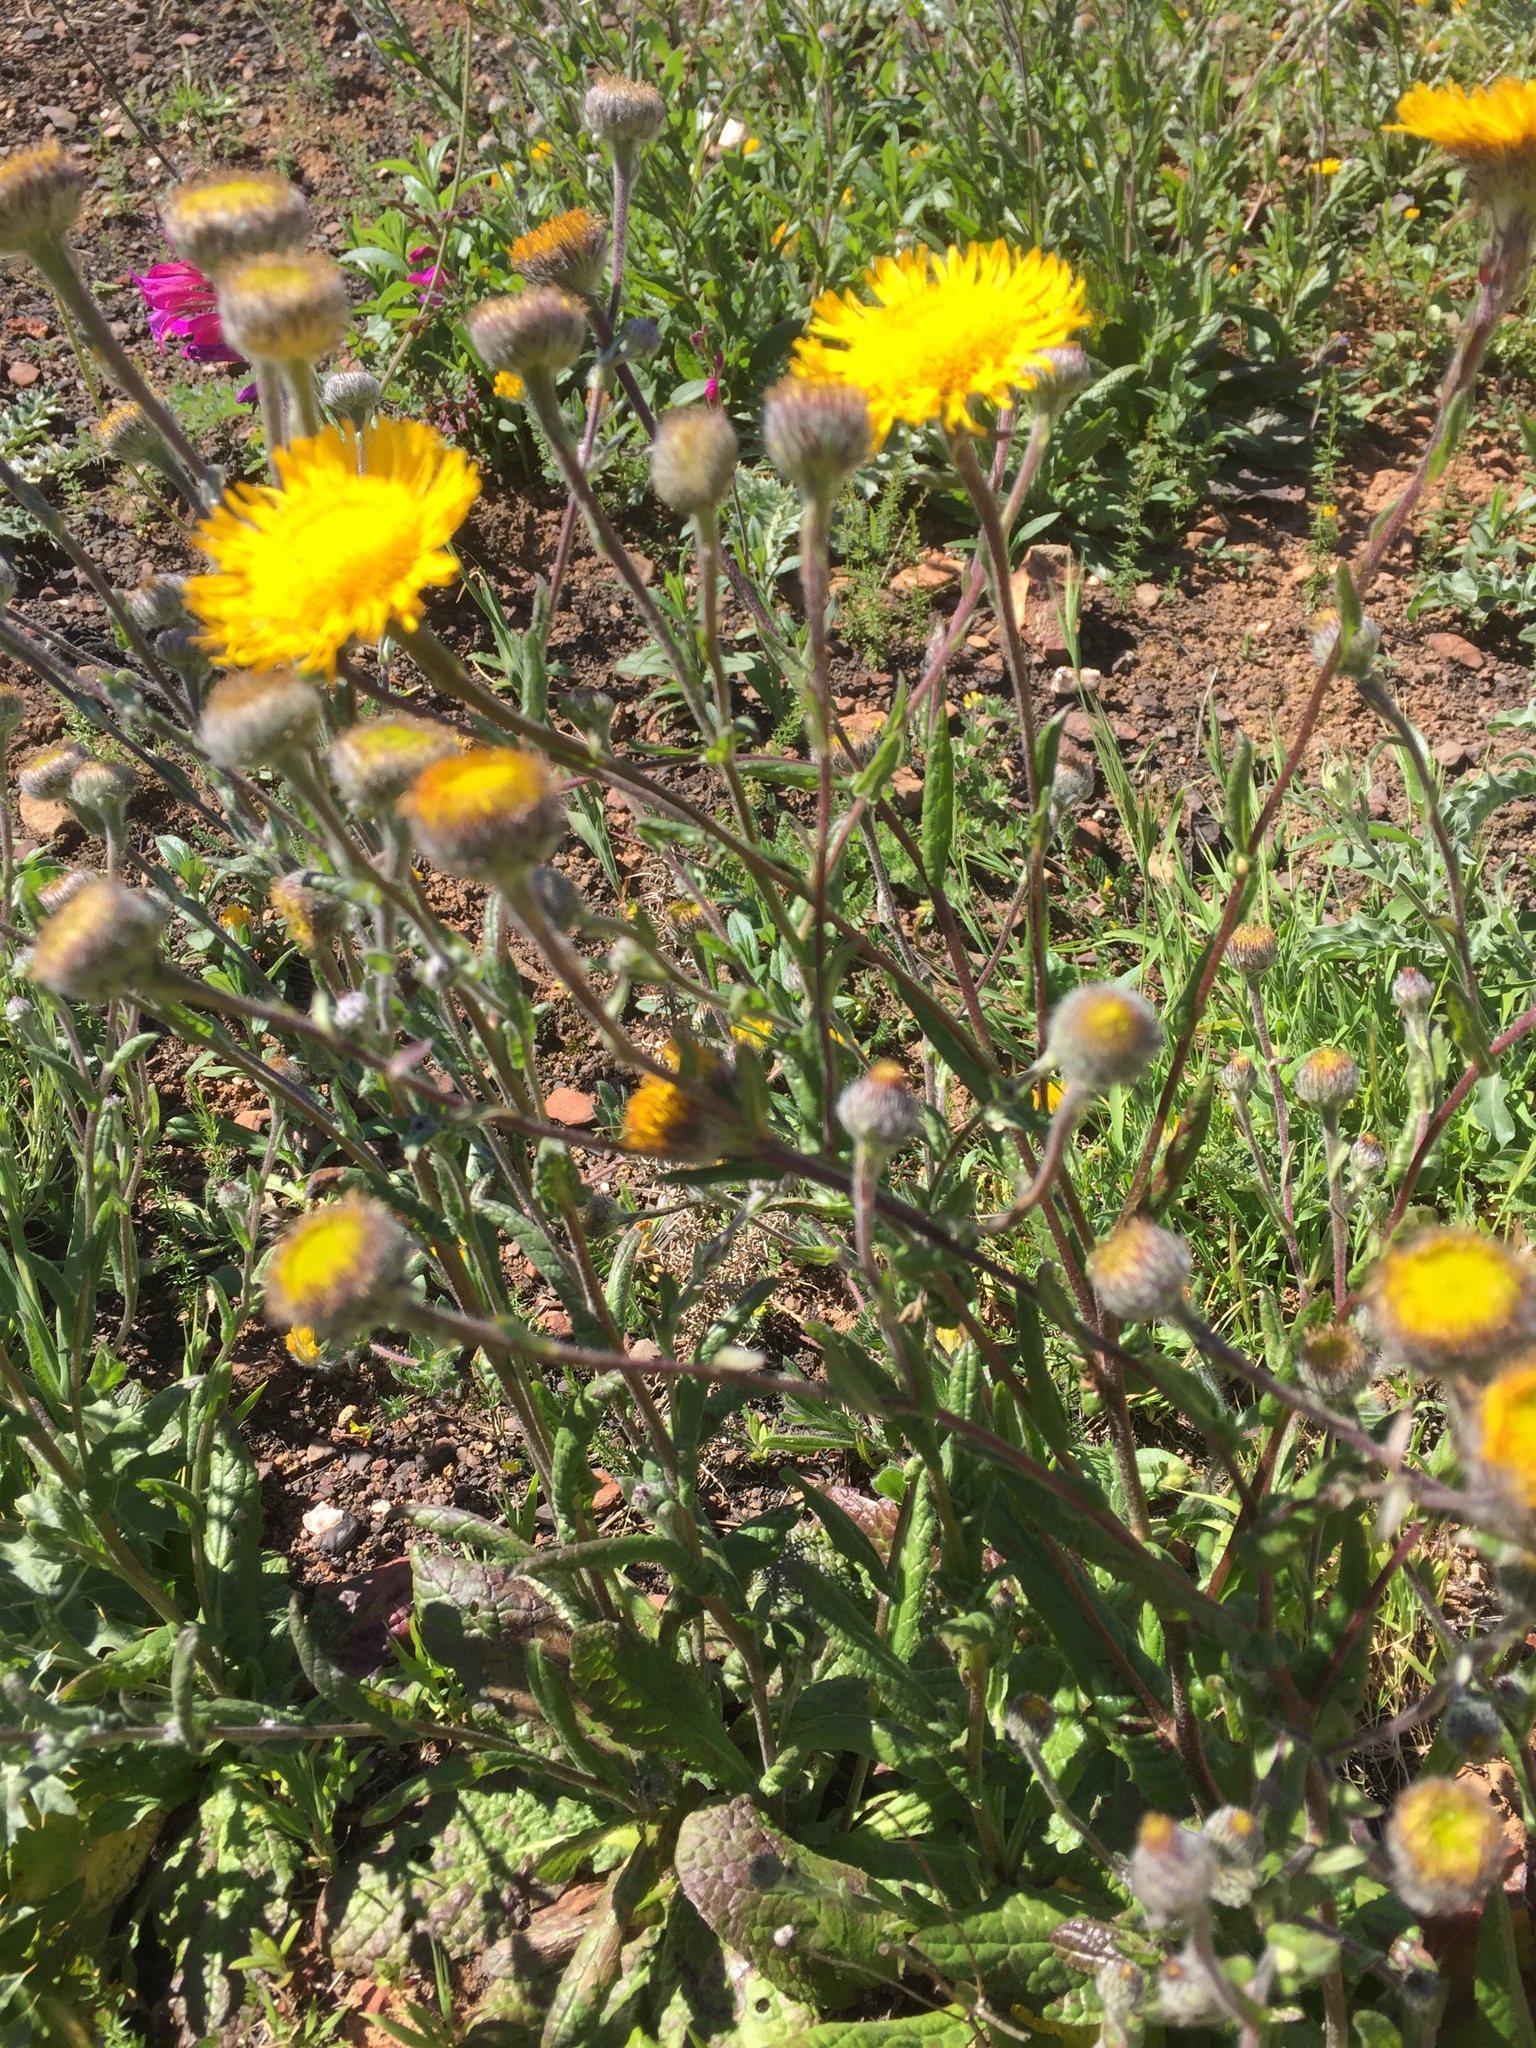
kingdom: Plantae
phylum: Tracheophyta
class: Magnoliopsida
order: Asterales
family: Asteraceae
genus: Pulicaria
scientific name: Pulicaria odora
